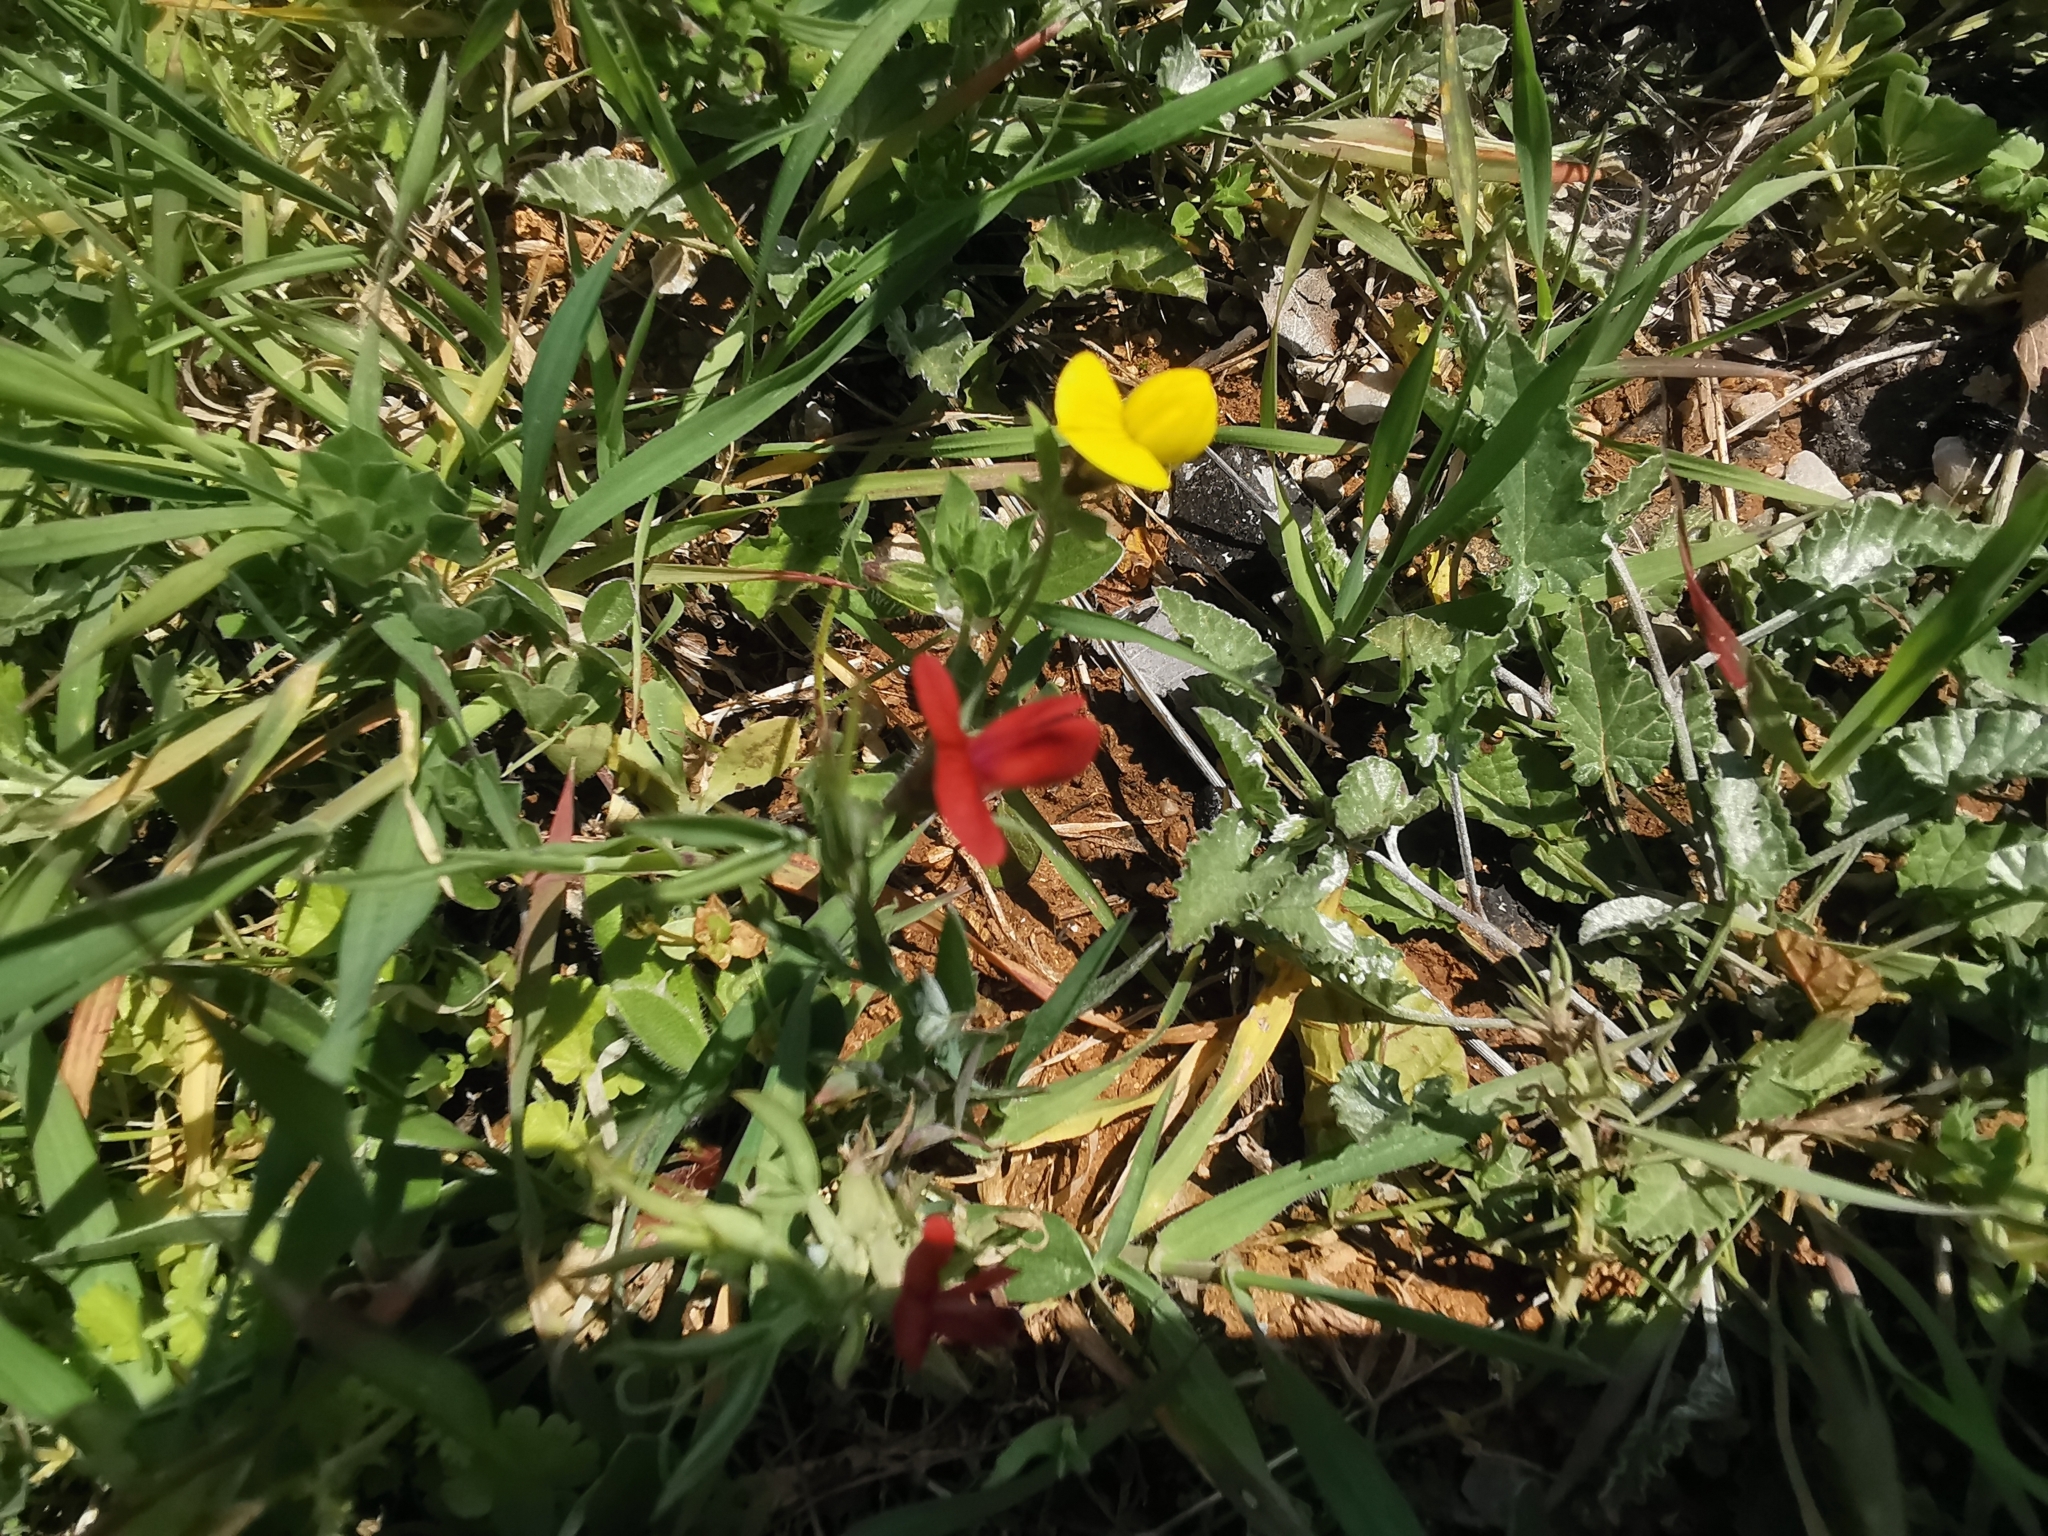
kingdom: Plantae
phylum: Tracheophyta
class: Magnoliopsida
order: Fabales
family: Fabaceae
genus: Lathyrus
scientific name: Lathyrus cicera
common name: Red vetchling
